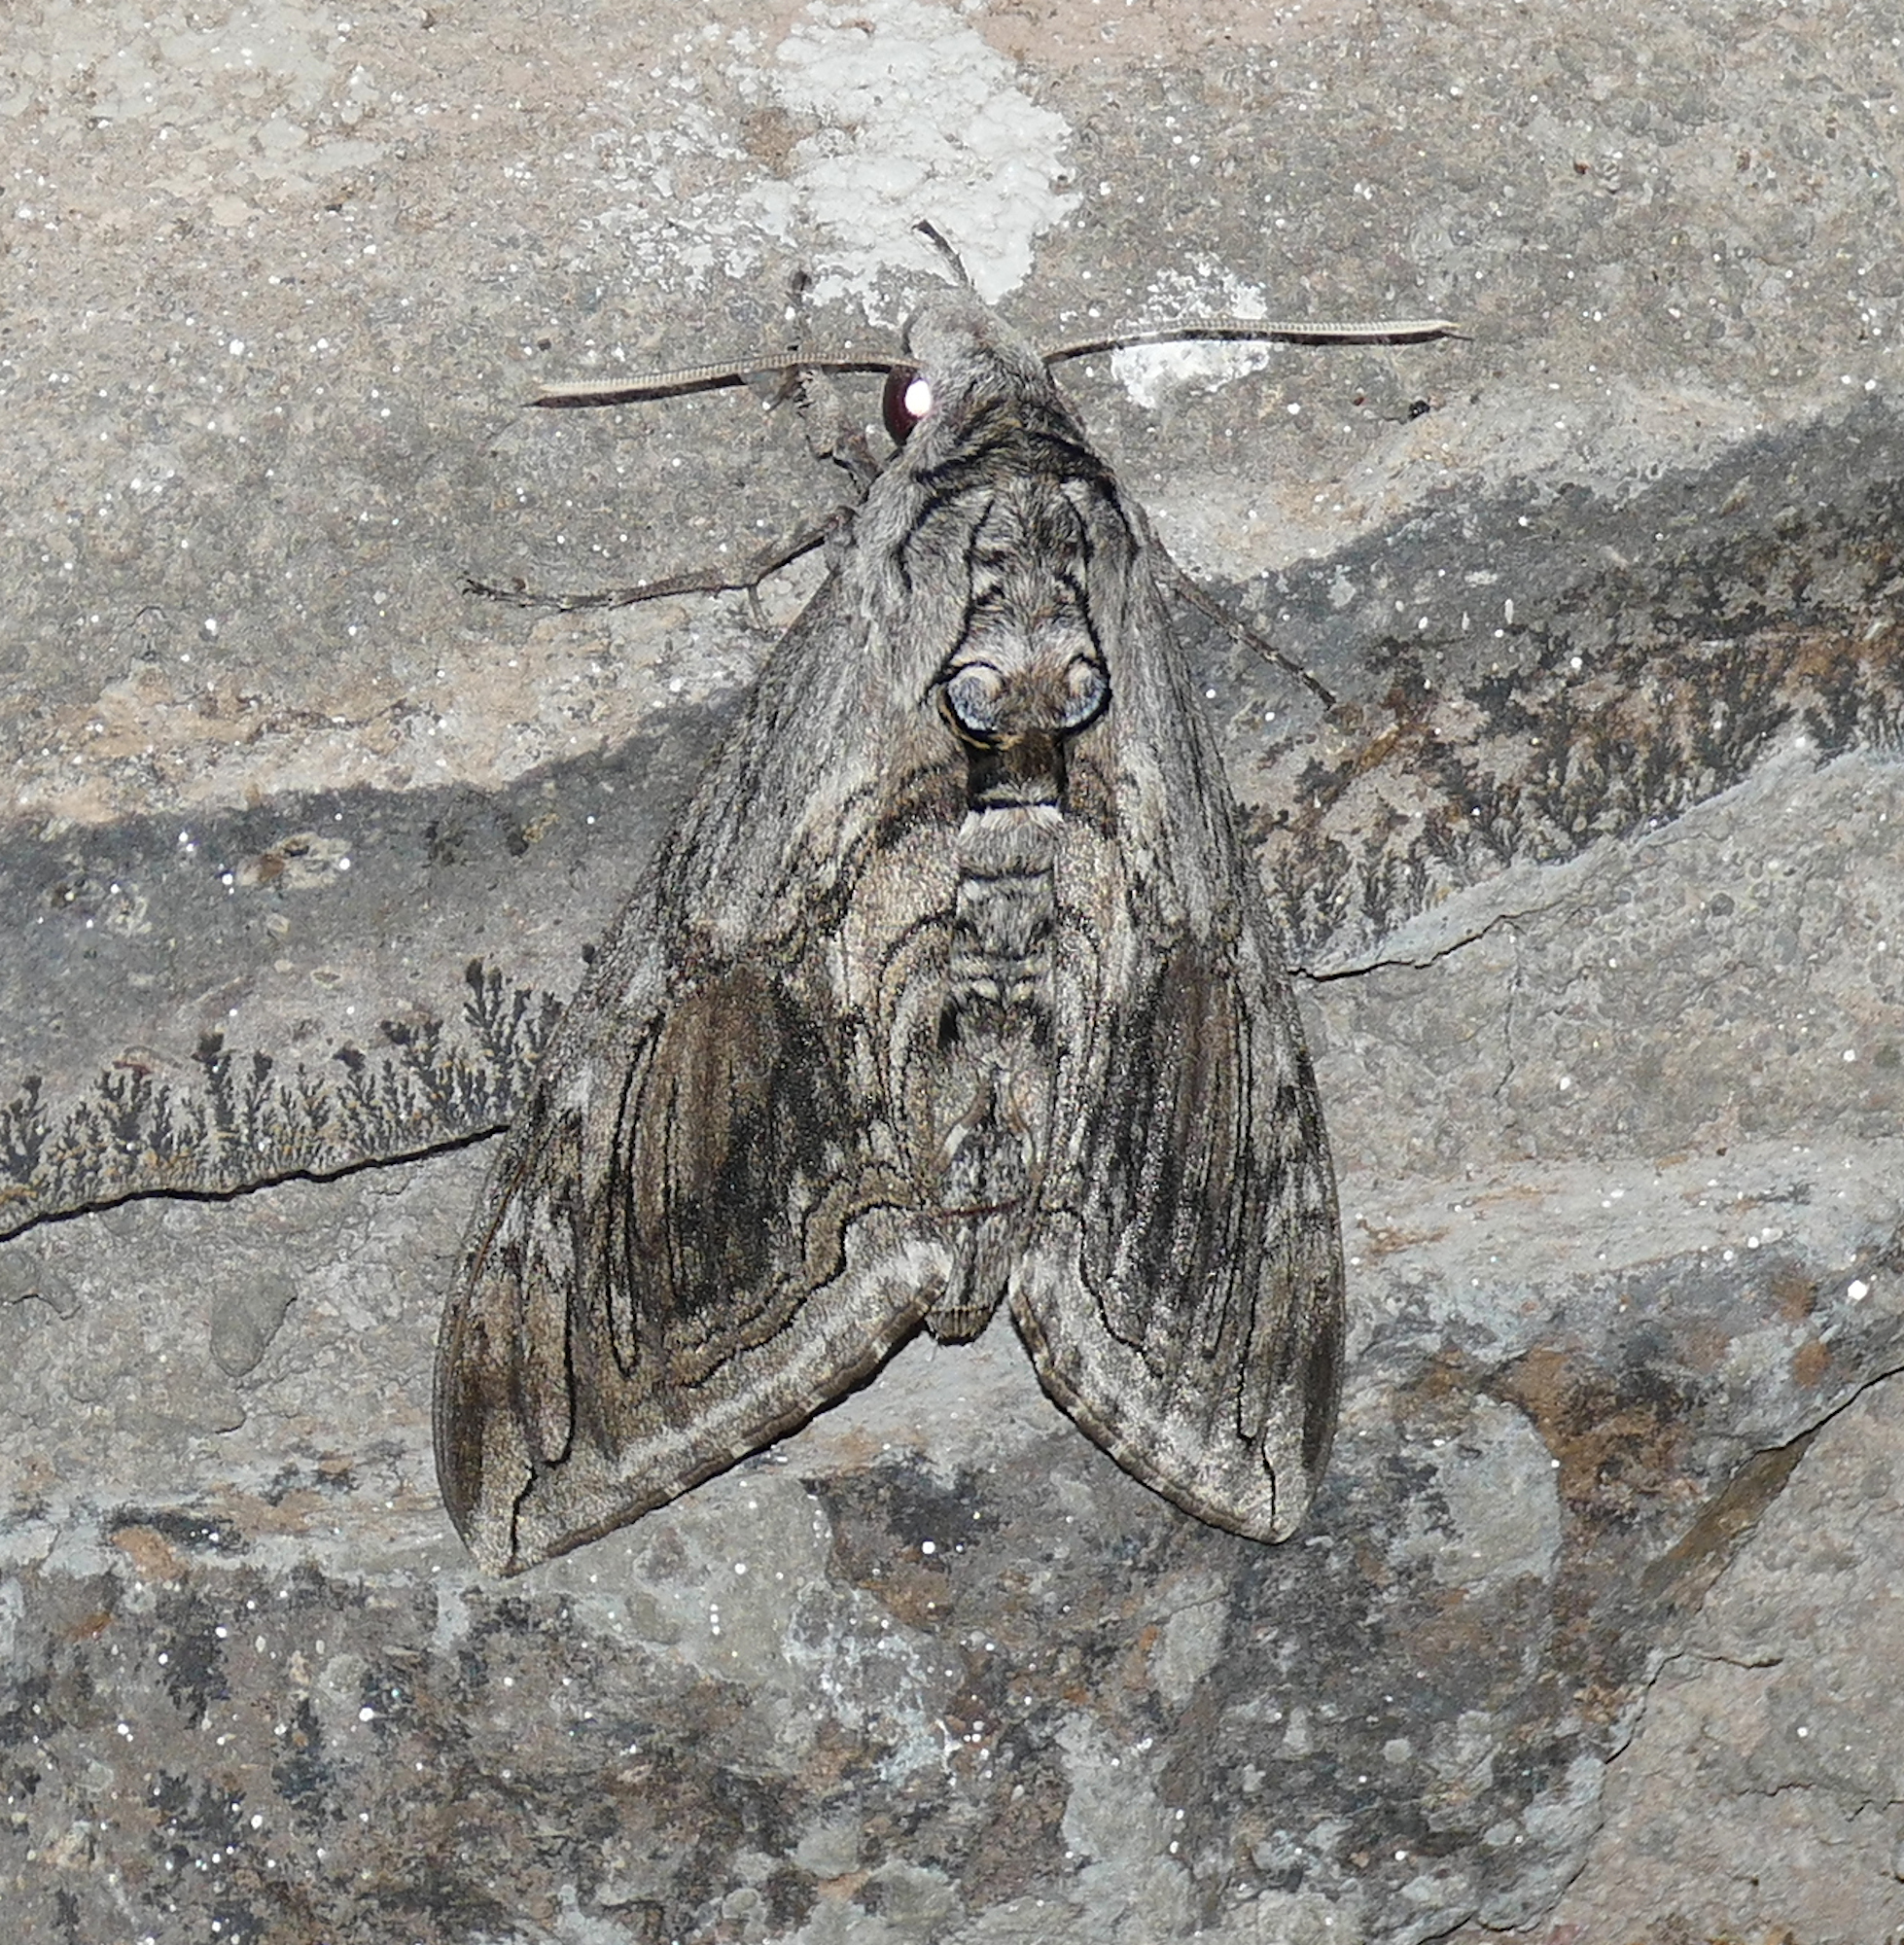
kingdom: Animalia
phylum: Arthropoda
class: Insecta
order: Lepidoptera
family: Sphingidae
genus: Manduca
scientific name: Manduca quinquemaculatus
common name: Five-spotted hawk-moth
